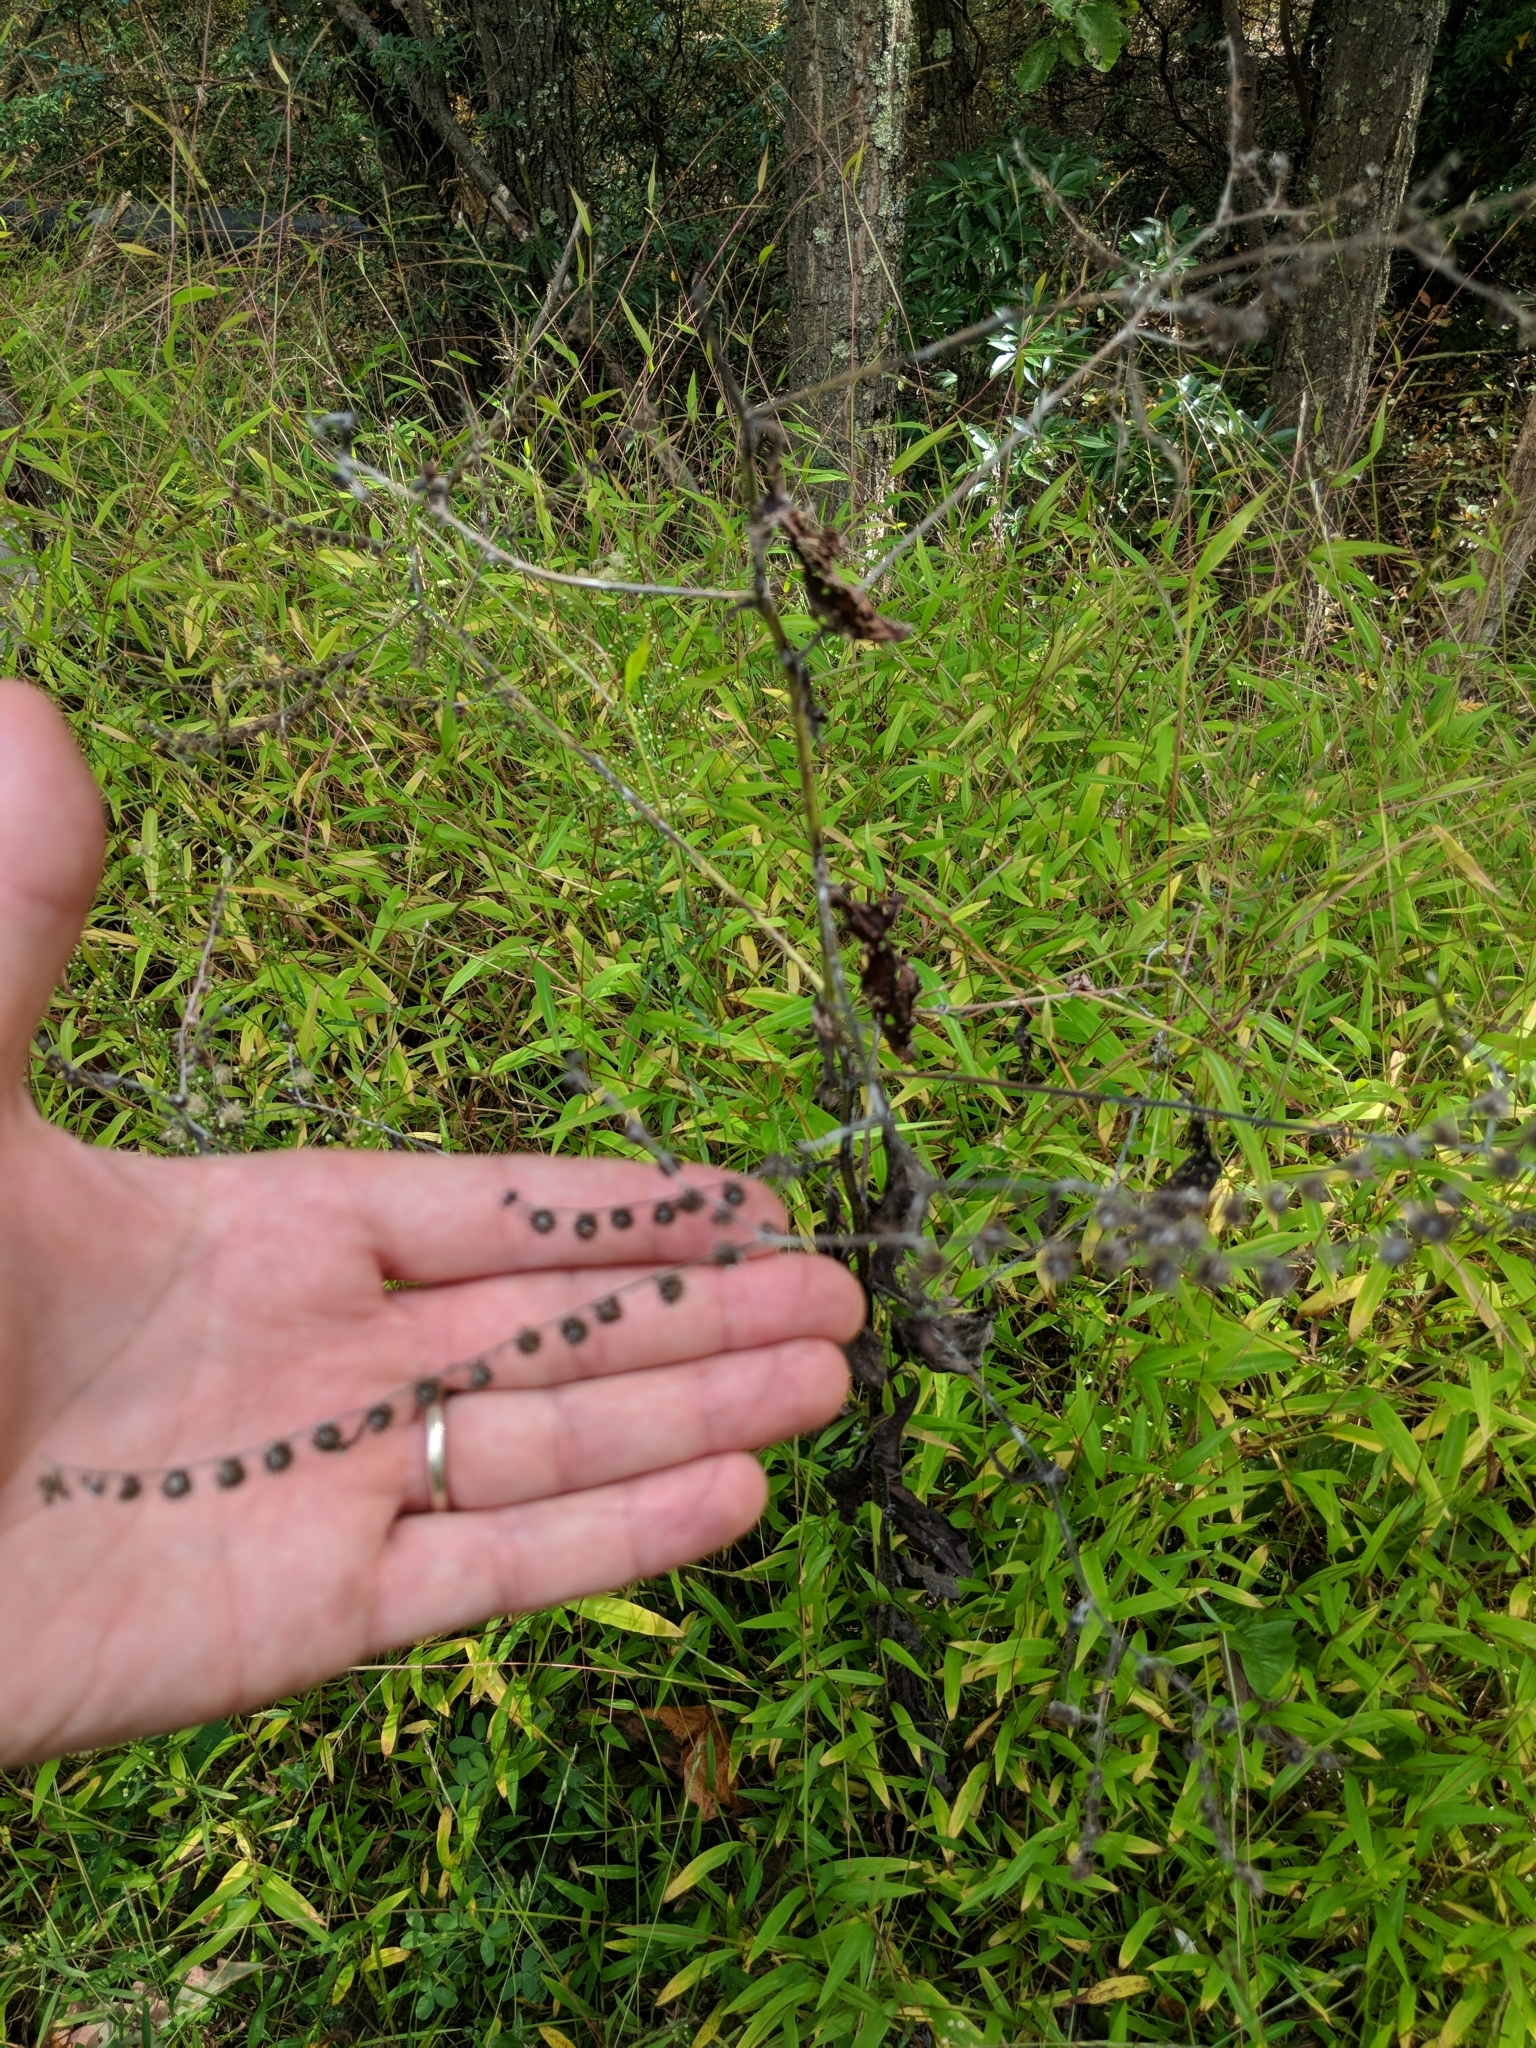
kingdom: Plantae
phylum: Tracheophyta
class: Magnoliopsida
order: Boraginales
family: Boraginaceae
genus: Hackelia
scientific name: Hackelia virginiana
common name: Beggar's-lice
